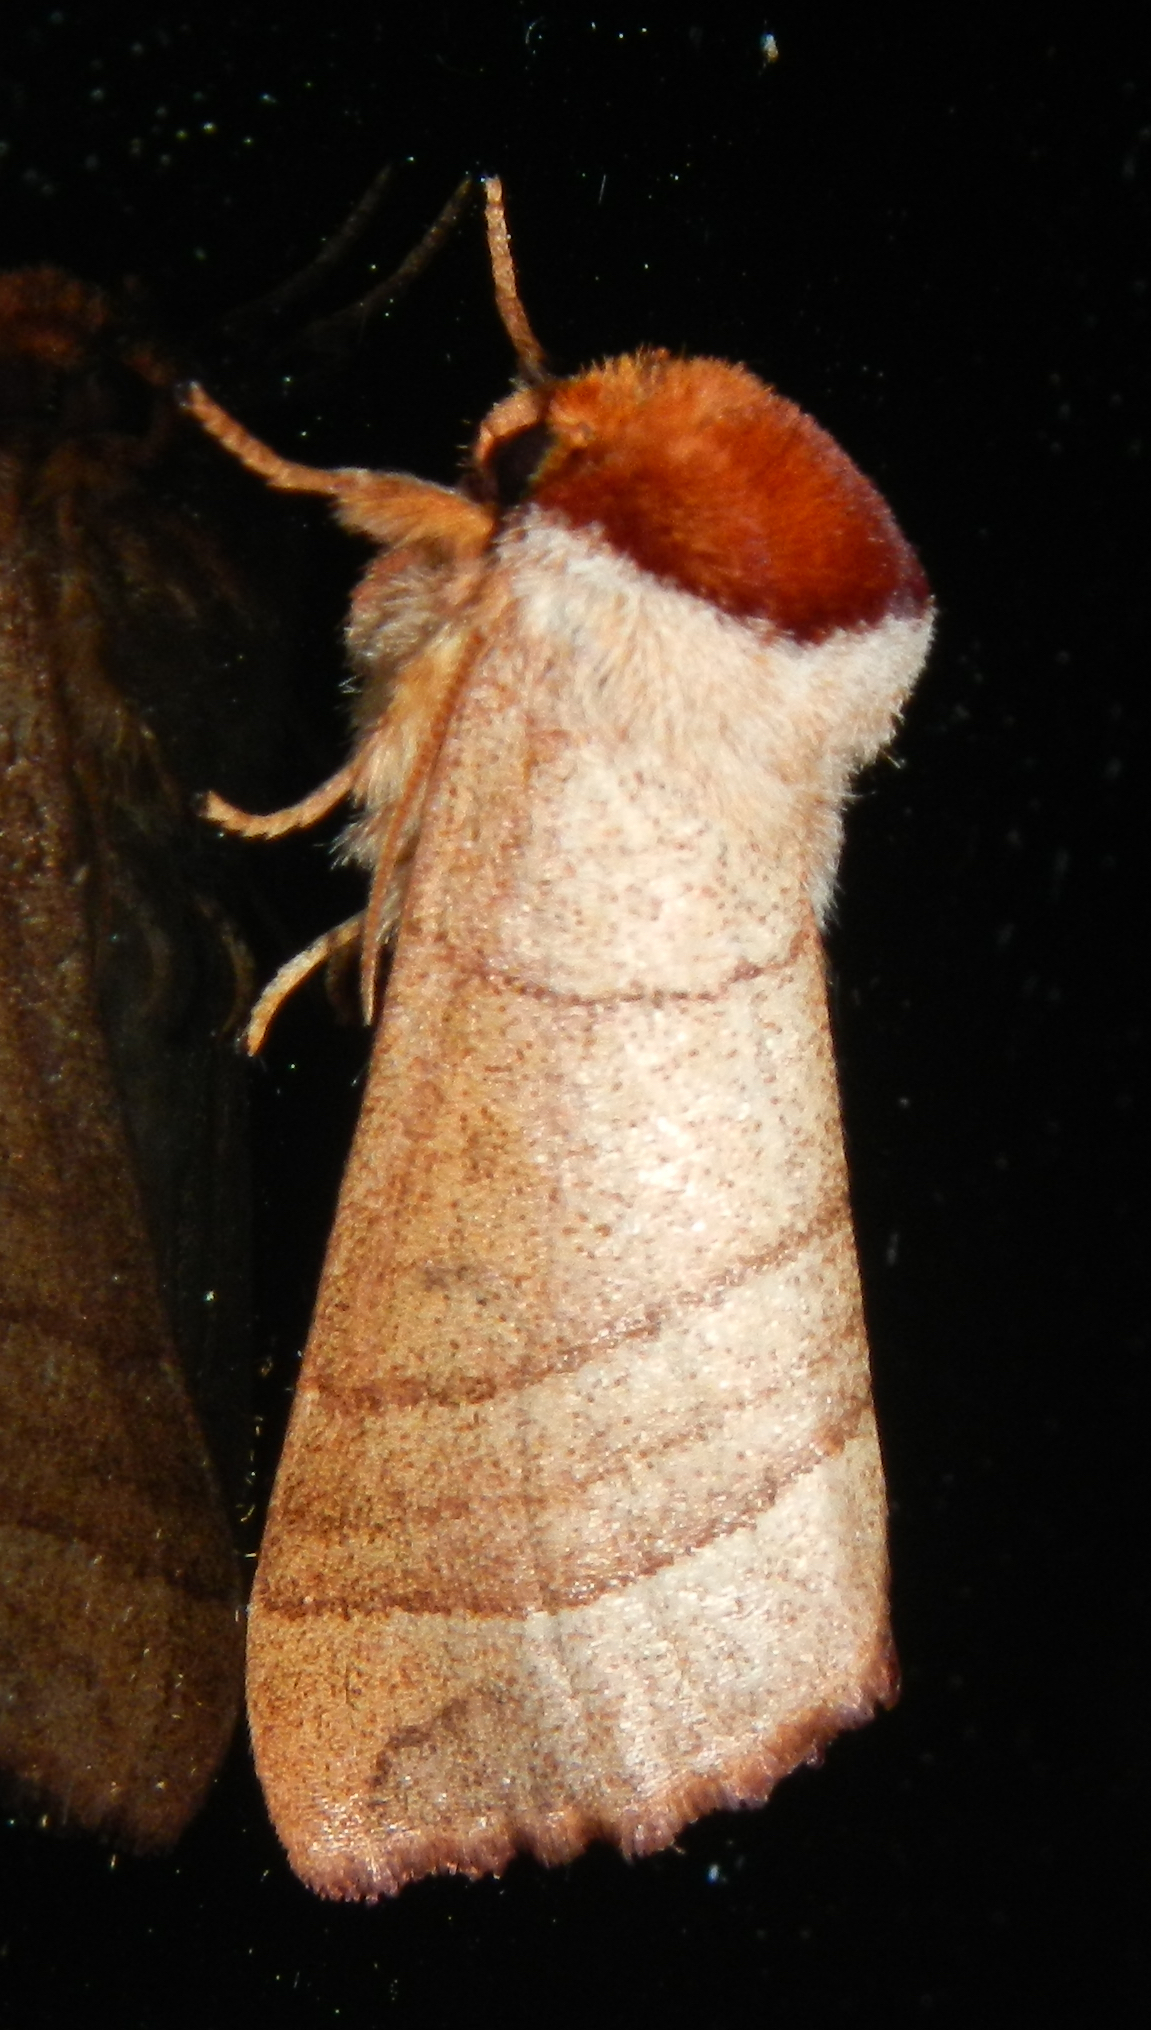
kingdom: Animalia
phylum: Arthropoda
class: Insecta
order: Lepidoptera
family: Notodontidae
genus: Datana
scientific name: Datana ministra
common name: Yellow-necked caterpillar moth
